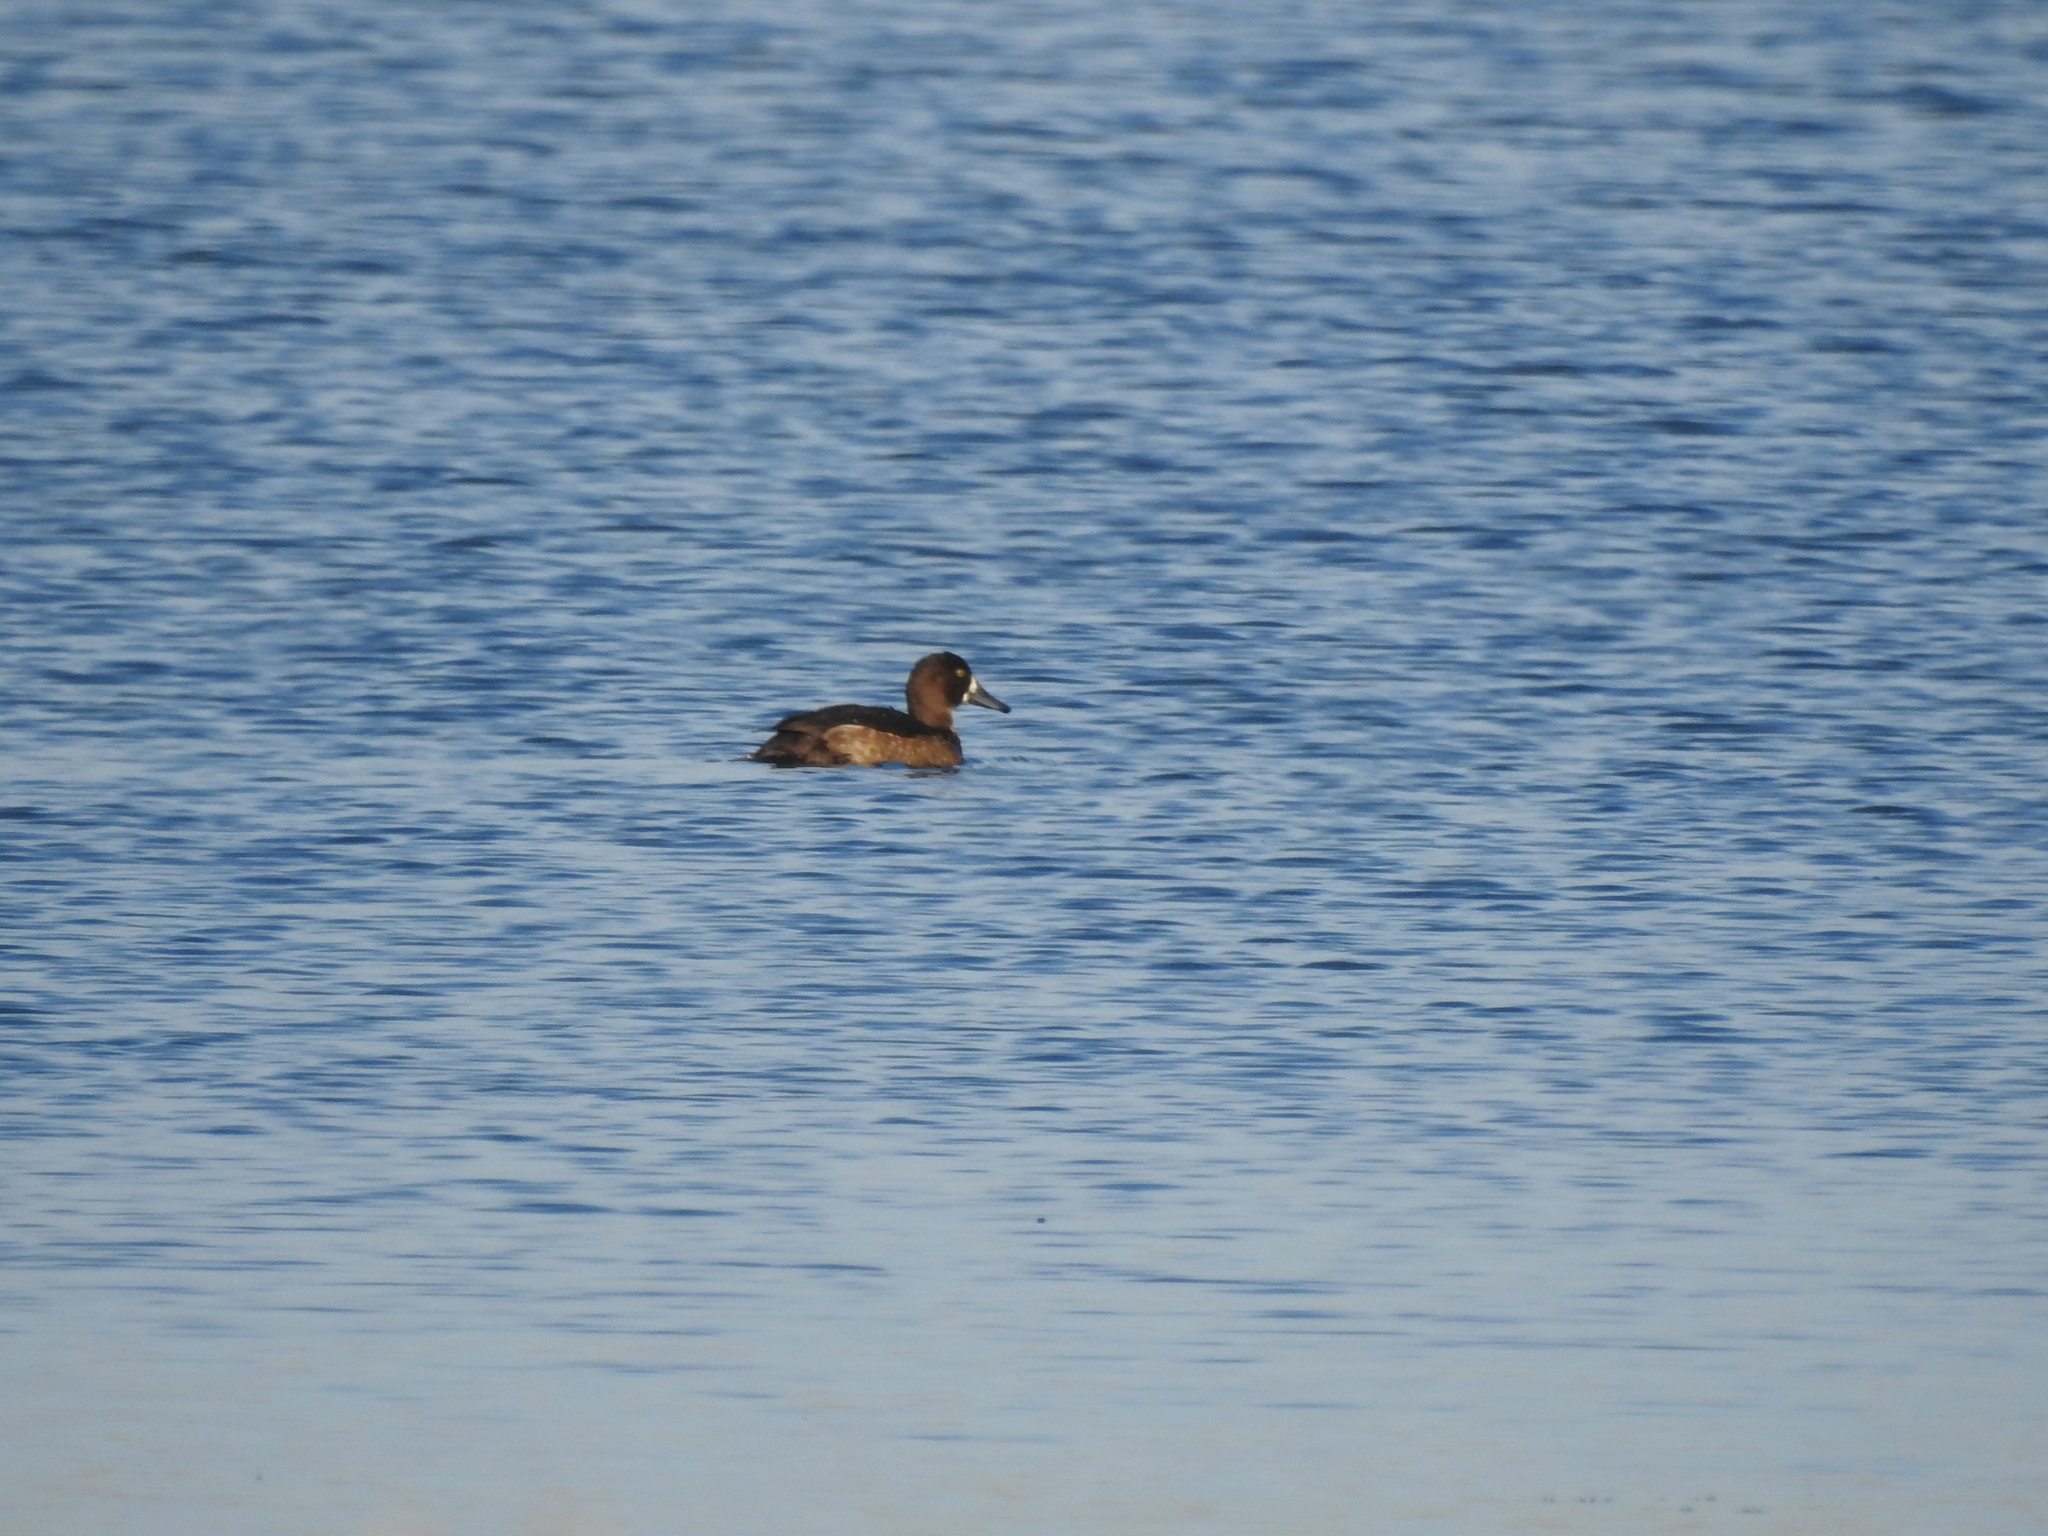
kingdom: Animalia
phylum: Chordata
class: Aves
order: Anseriformes
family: Anatidae
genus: Aythya
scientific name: Aythya fuligula
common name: Tufted duck
